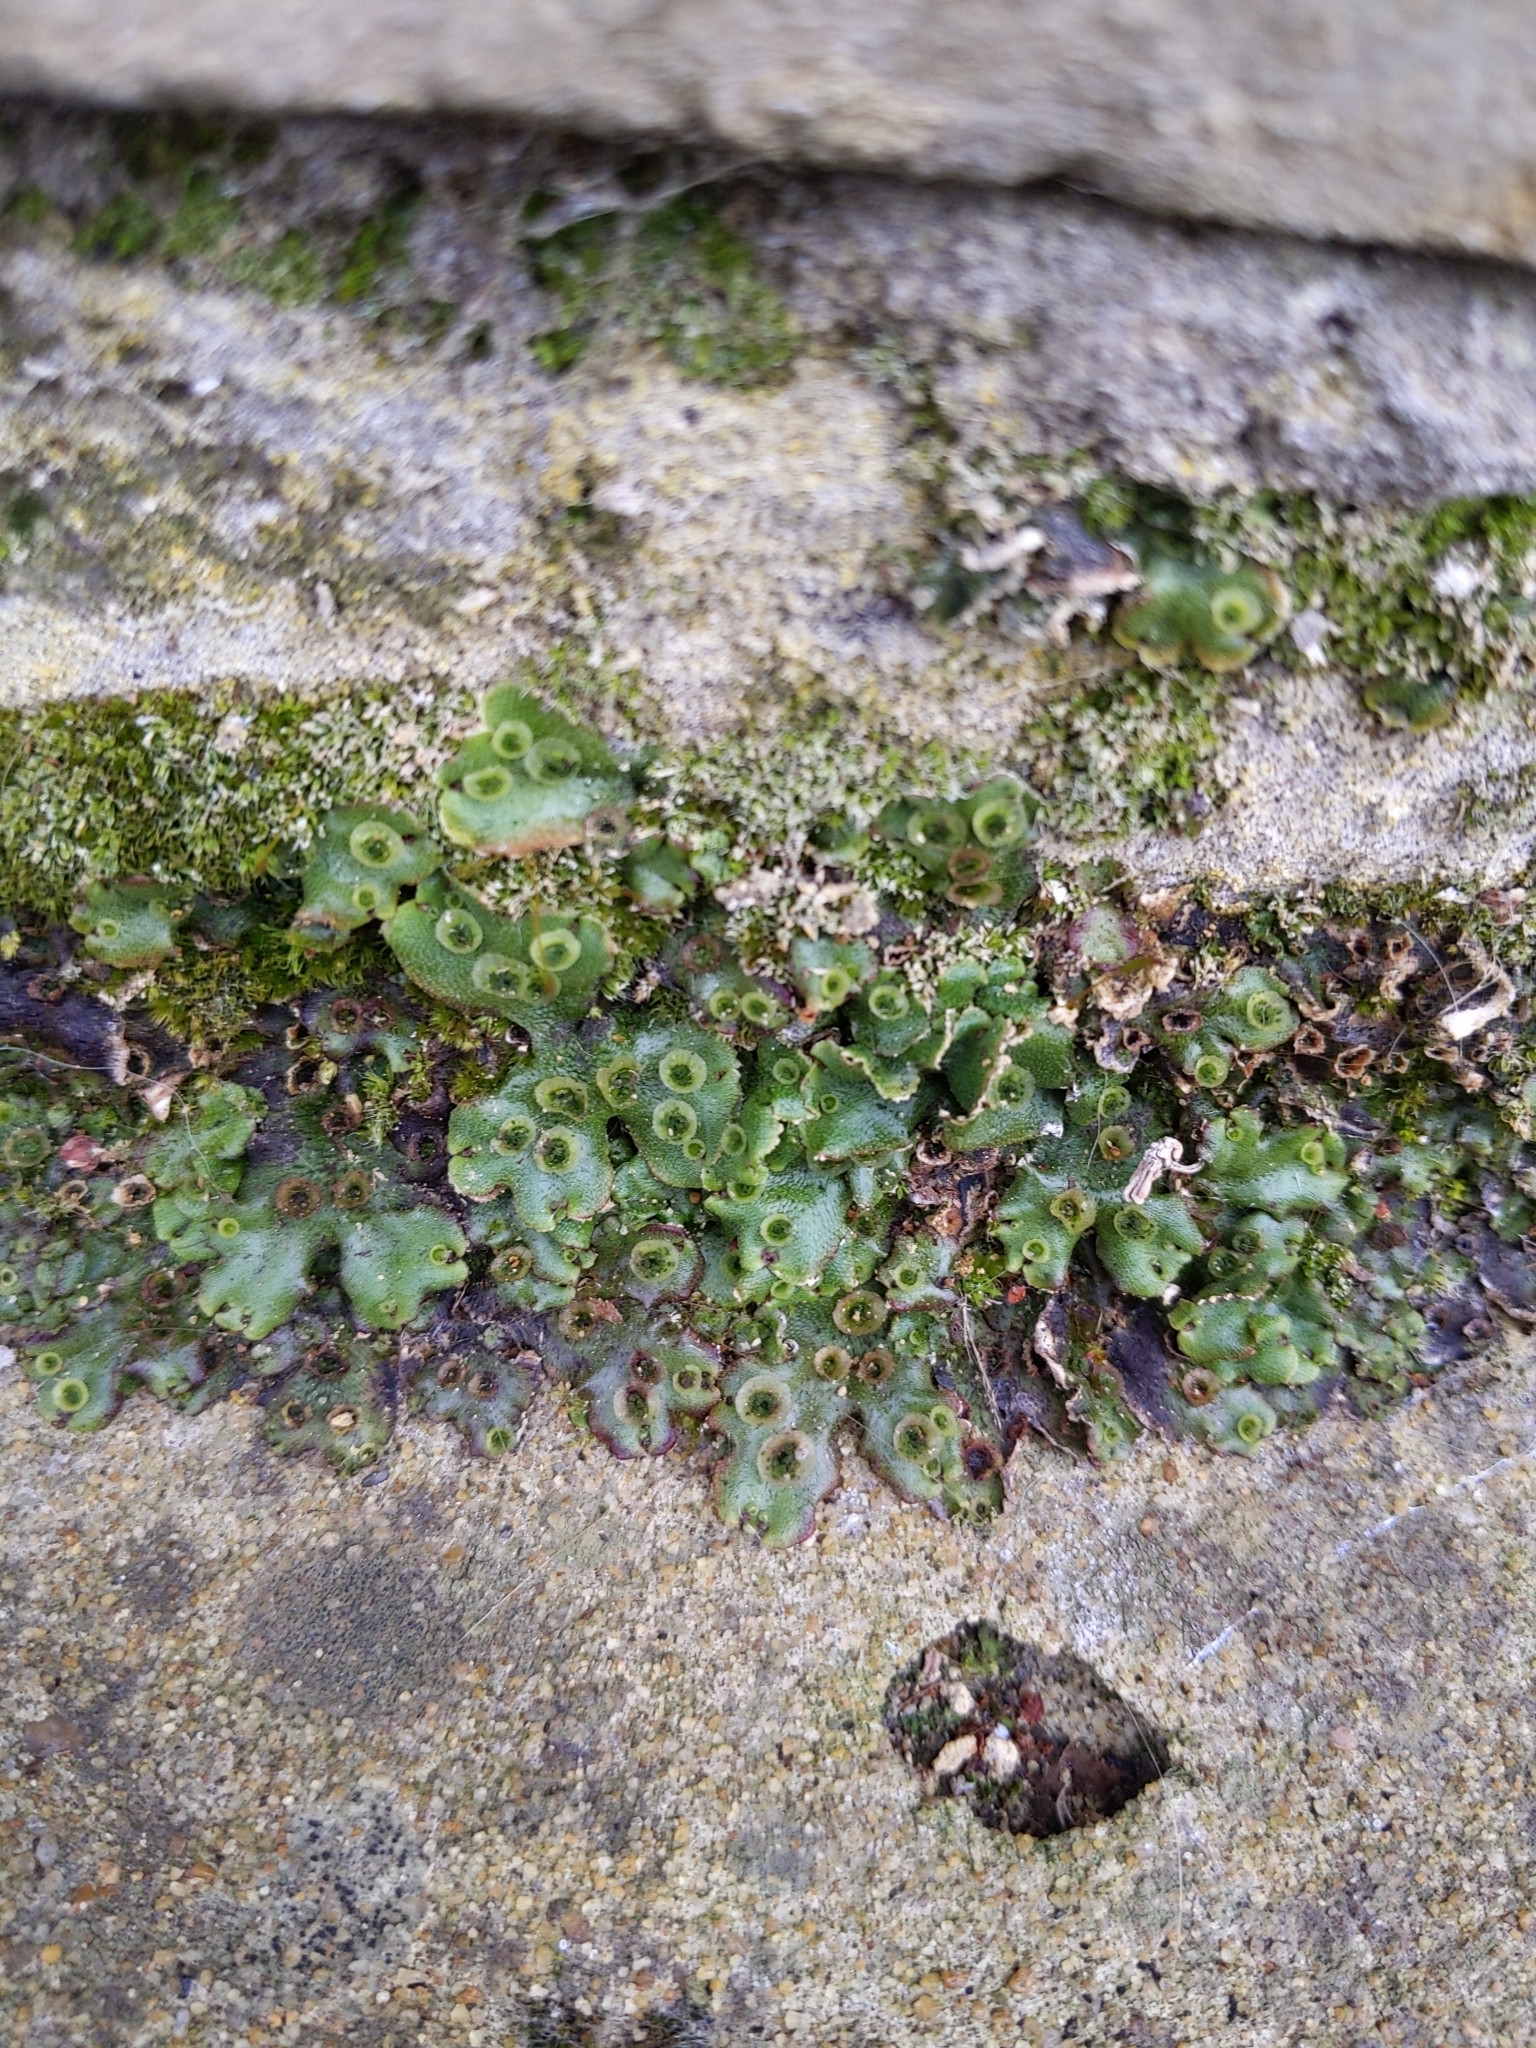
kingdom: Plantae
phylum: Marchantiophyta
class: Marchantiopsida
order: Marchantiales
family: Marchantiaceae
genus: Marchantia
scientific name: Marchantia polymorpha
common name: Common liverwort
